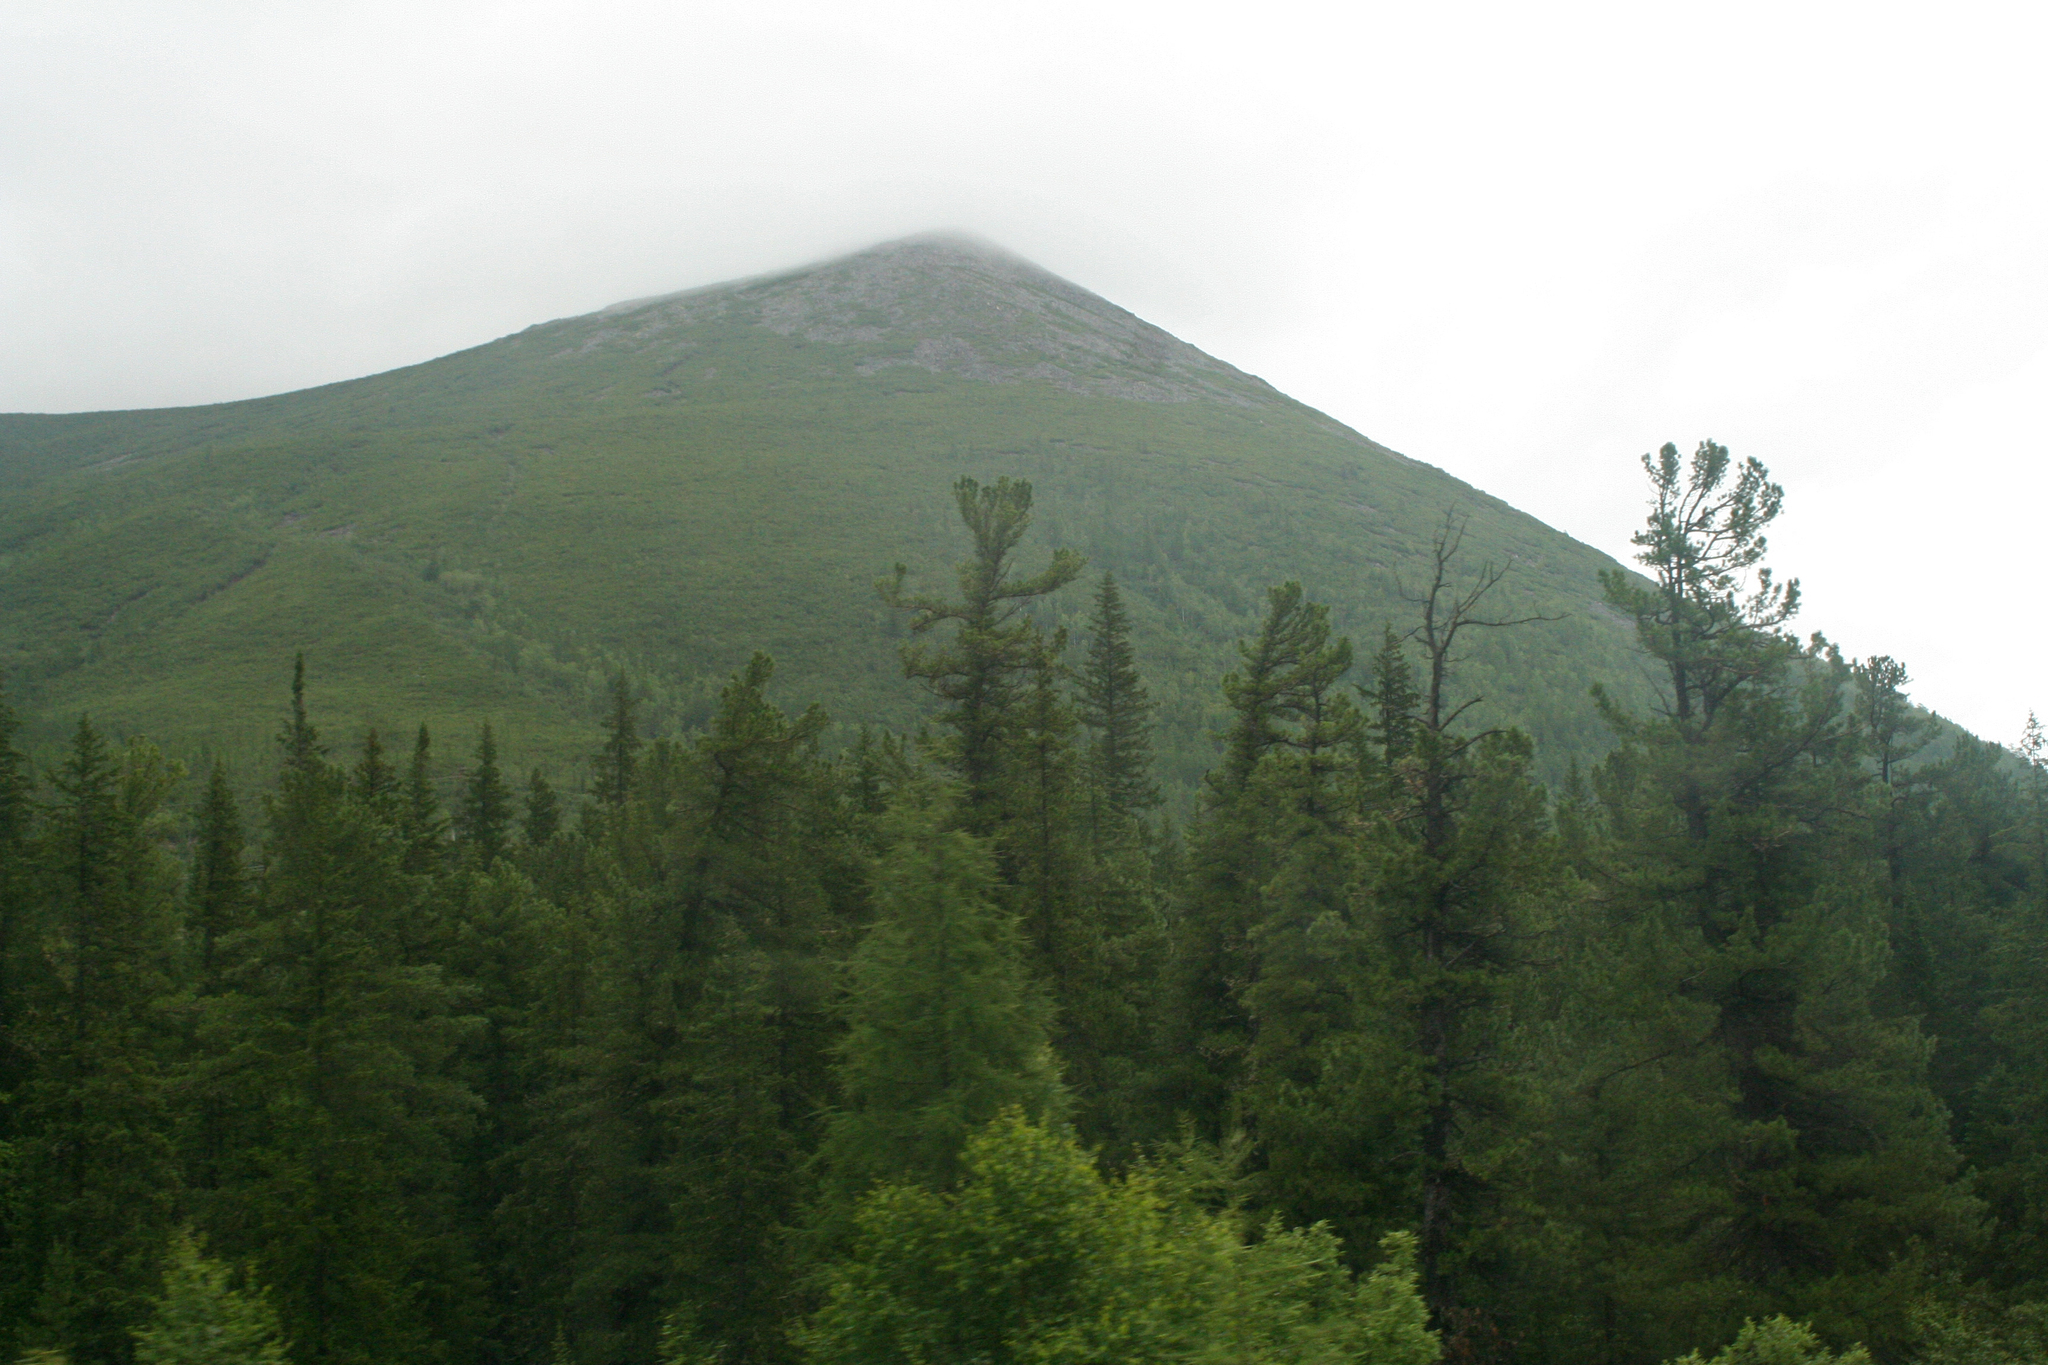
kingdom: Plantae
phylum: Tracheophyta
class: Pinopsida
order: Pinales
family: Pinaceae
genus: Pinus
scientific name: Pinus sibirica
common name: Siberian pine
